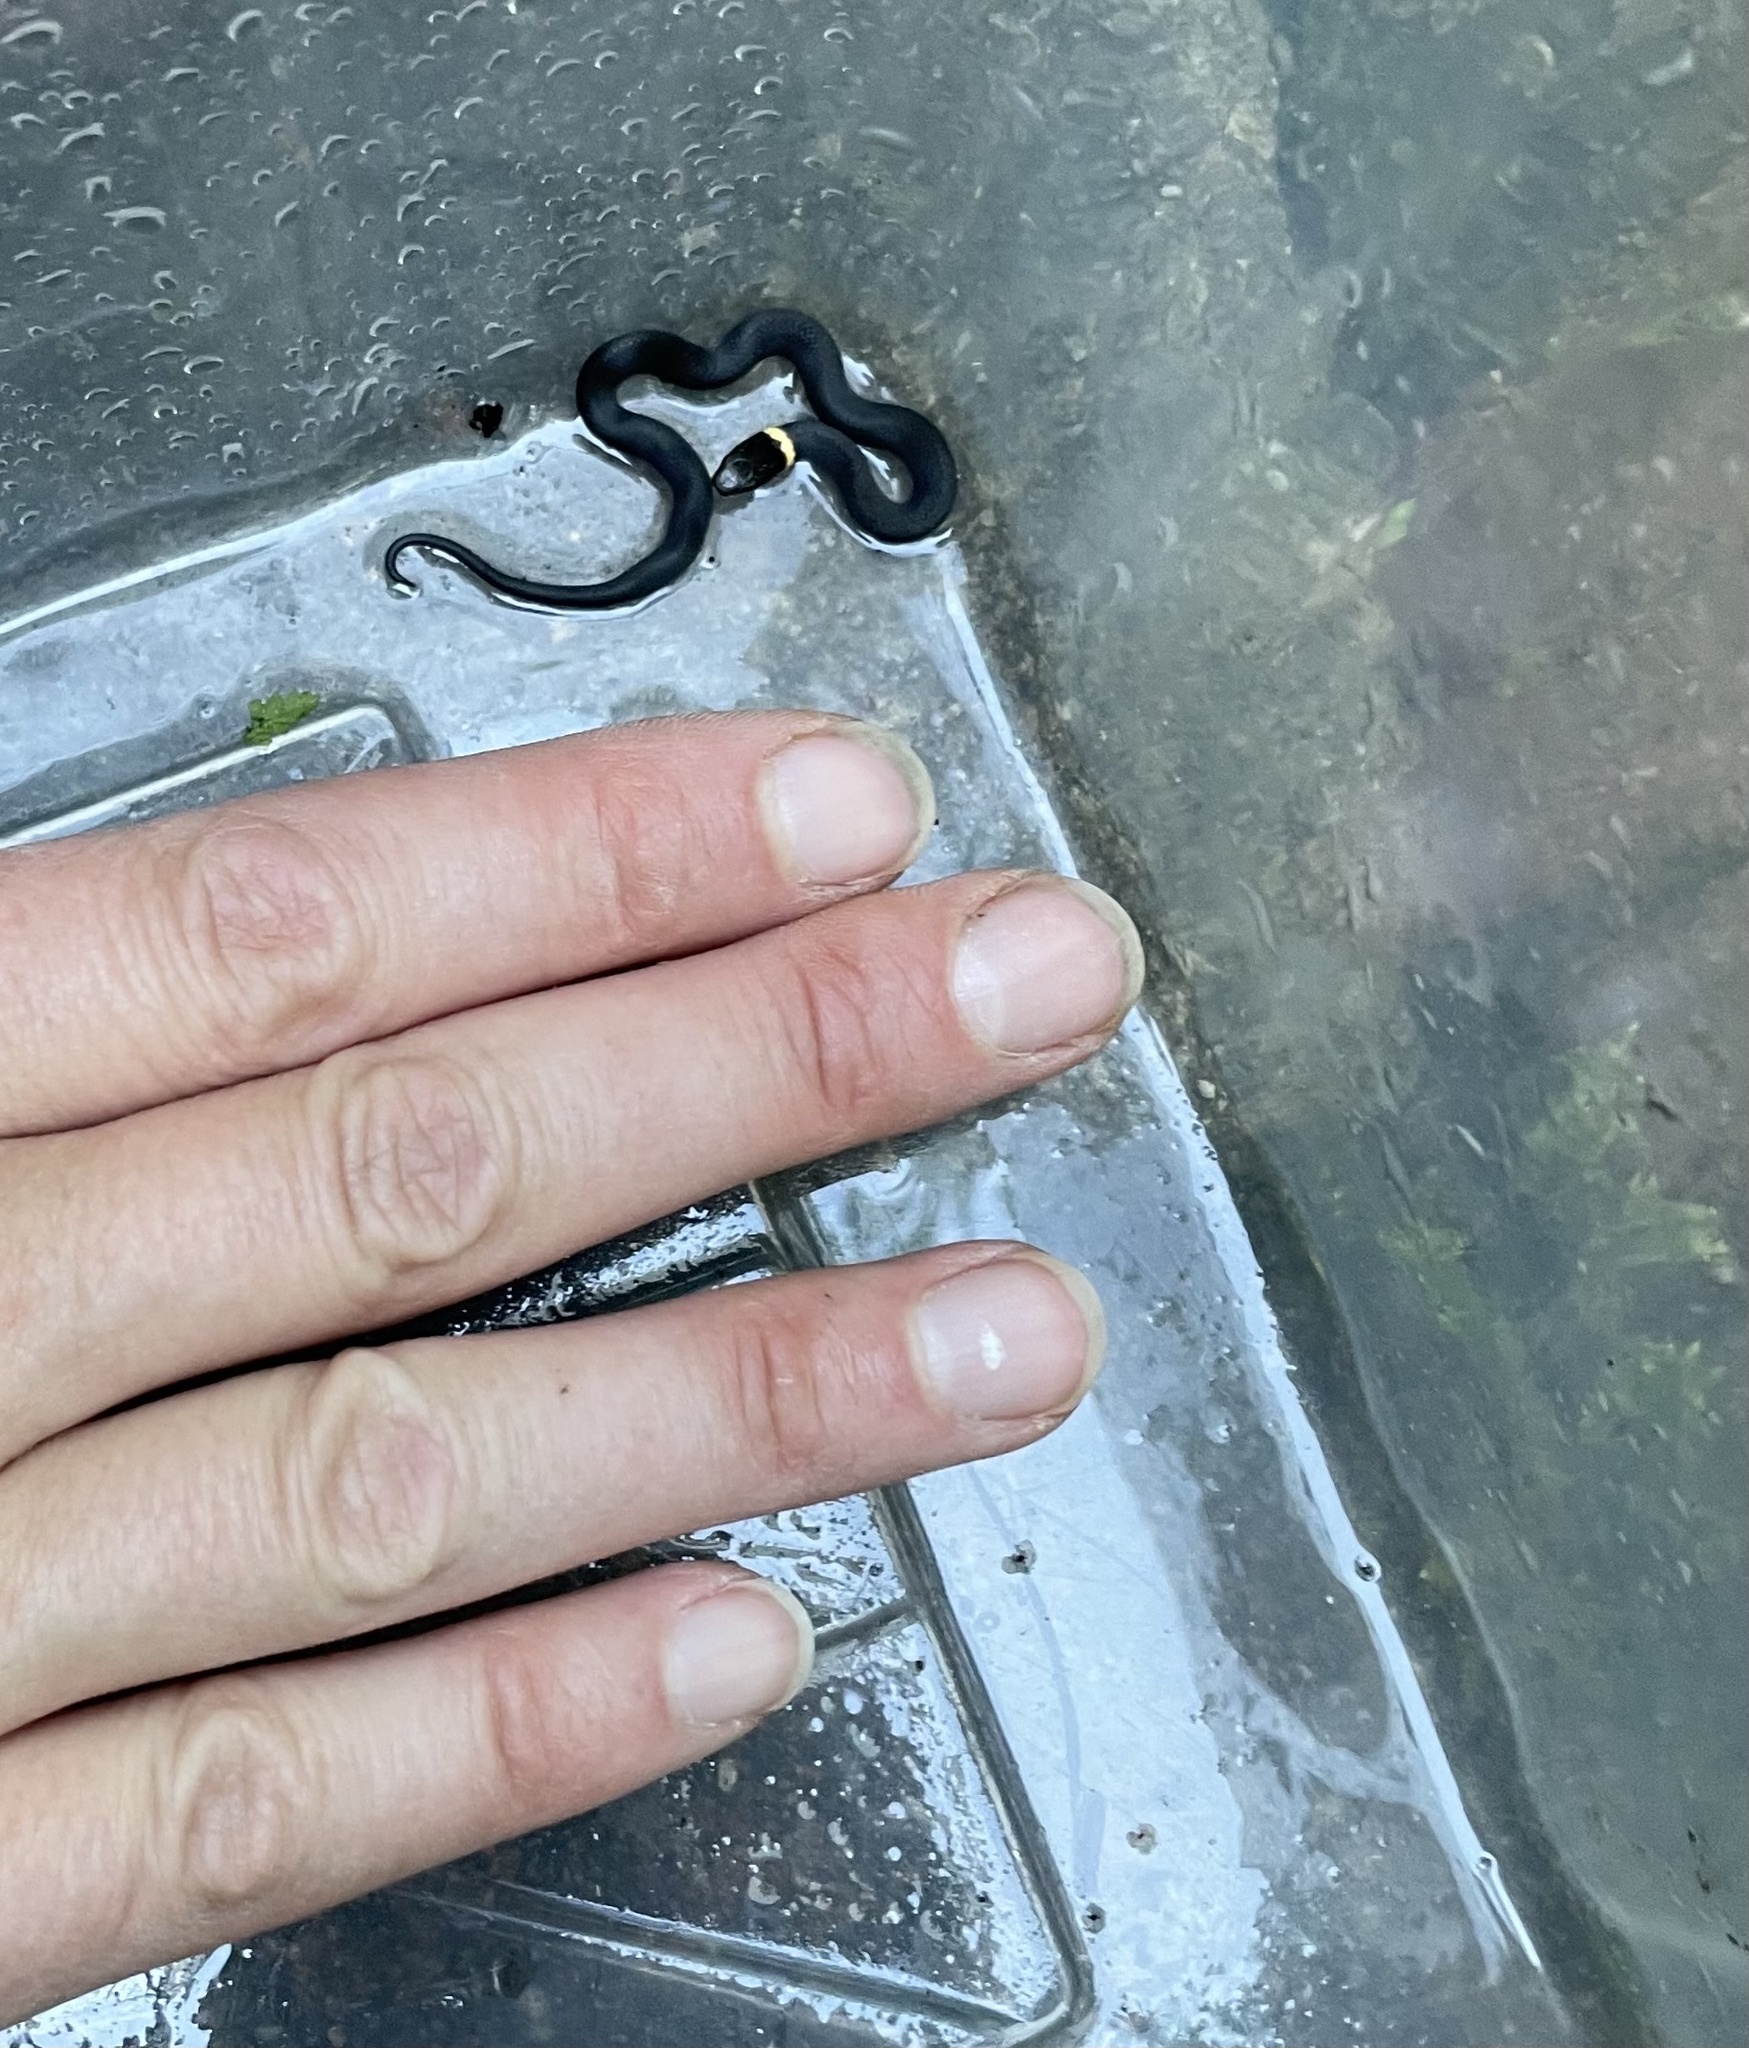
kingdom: Animalia
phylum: Chordata
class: Squamata
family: Colubridae
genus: Diadophis
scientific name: Diadophis punctatus
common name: Ringneck snake
